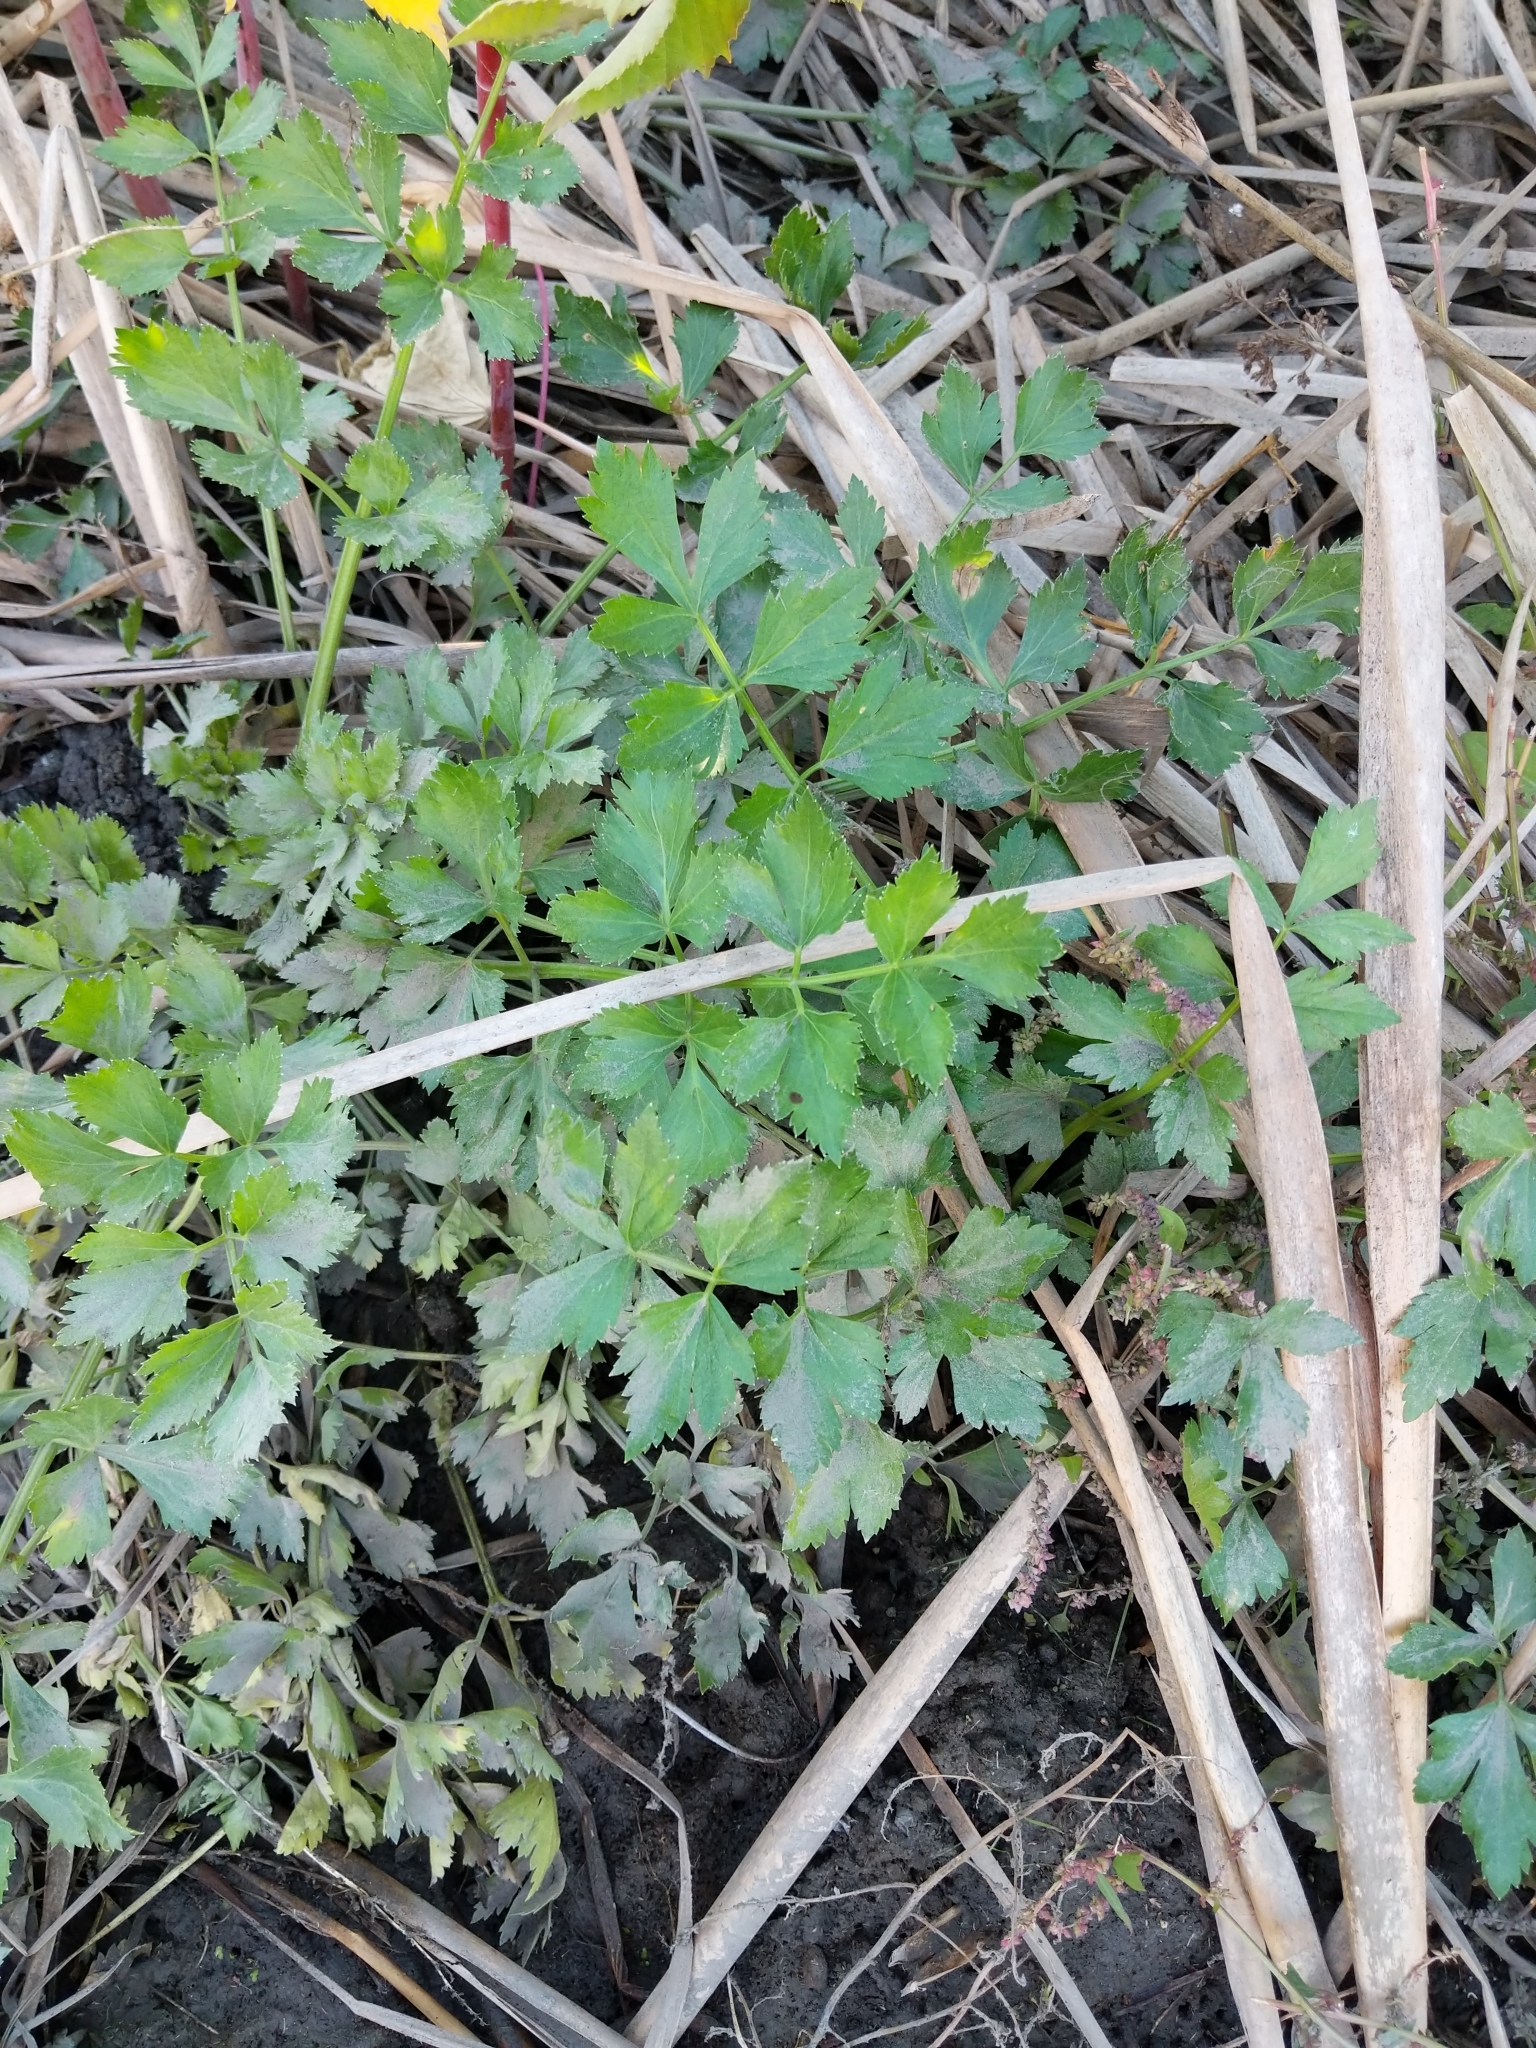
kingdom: Plantae
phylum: Tracheophyta
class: Magnoliopsida
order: Apiales
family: Apiaceae
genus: Apium
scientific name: Apium graveolens
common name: Wild celery
